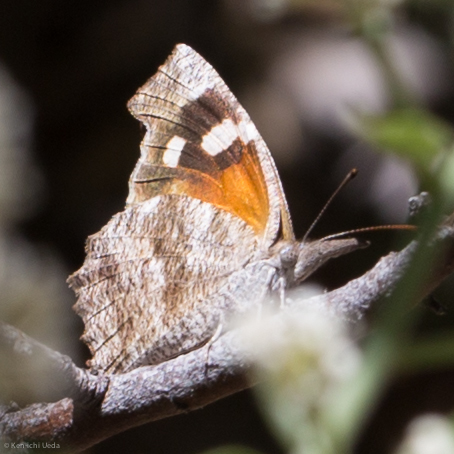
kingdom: Animalia
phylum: Arthropoda
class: Insecta
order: Lepidoptera
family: Nymphalidae
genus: Libytheana
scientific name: Libytheana carinenta
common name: American snout
